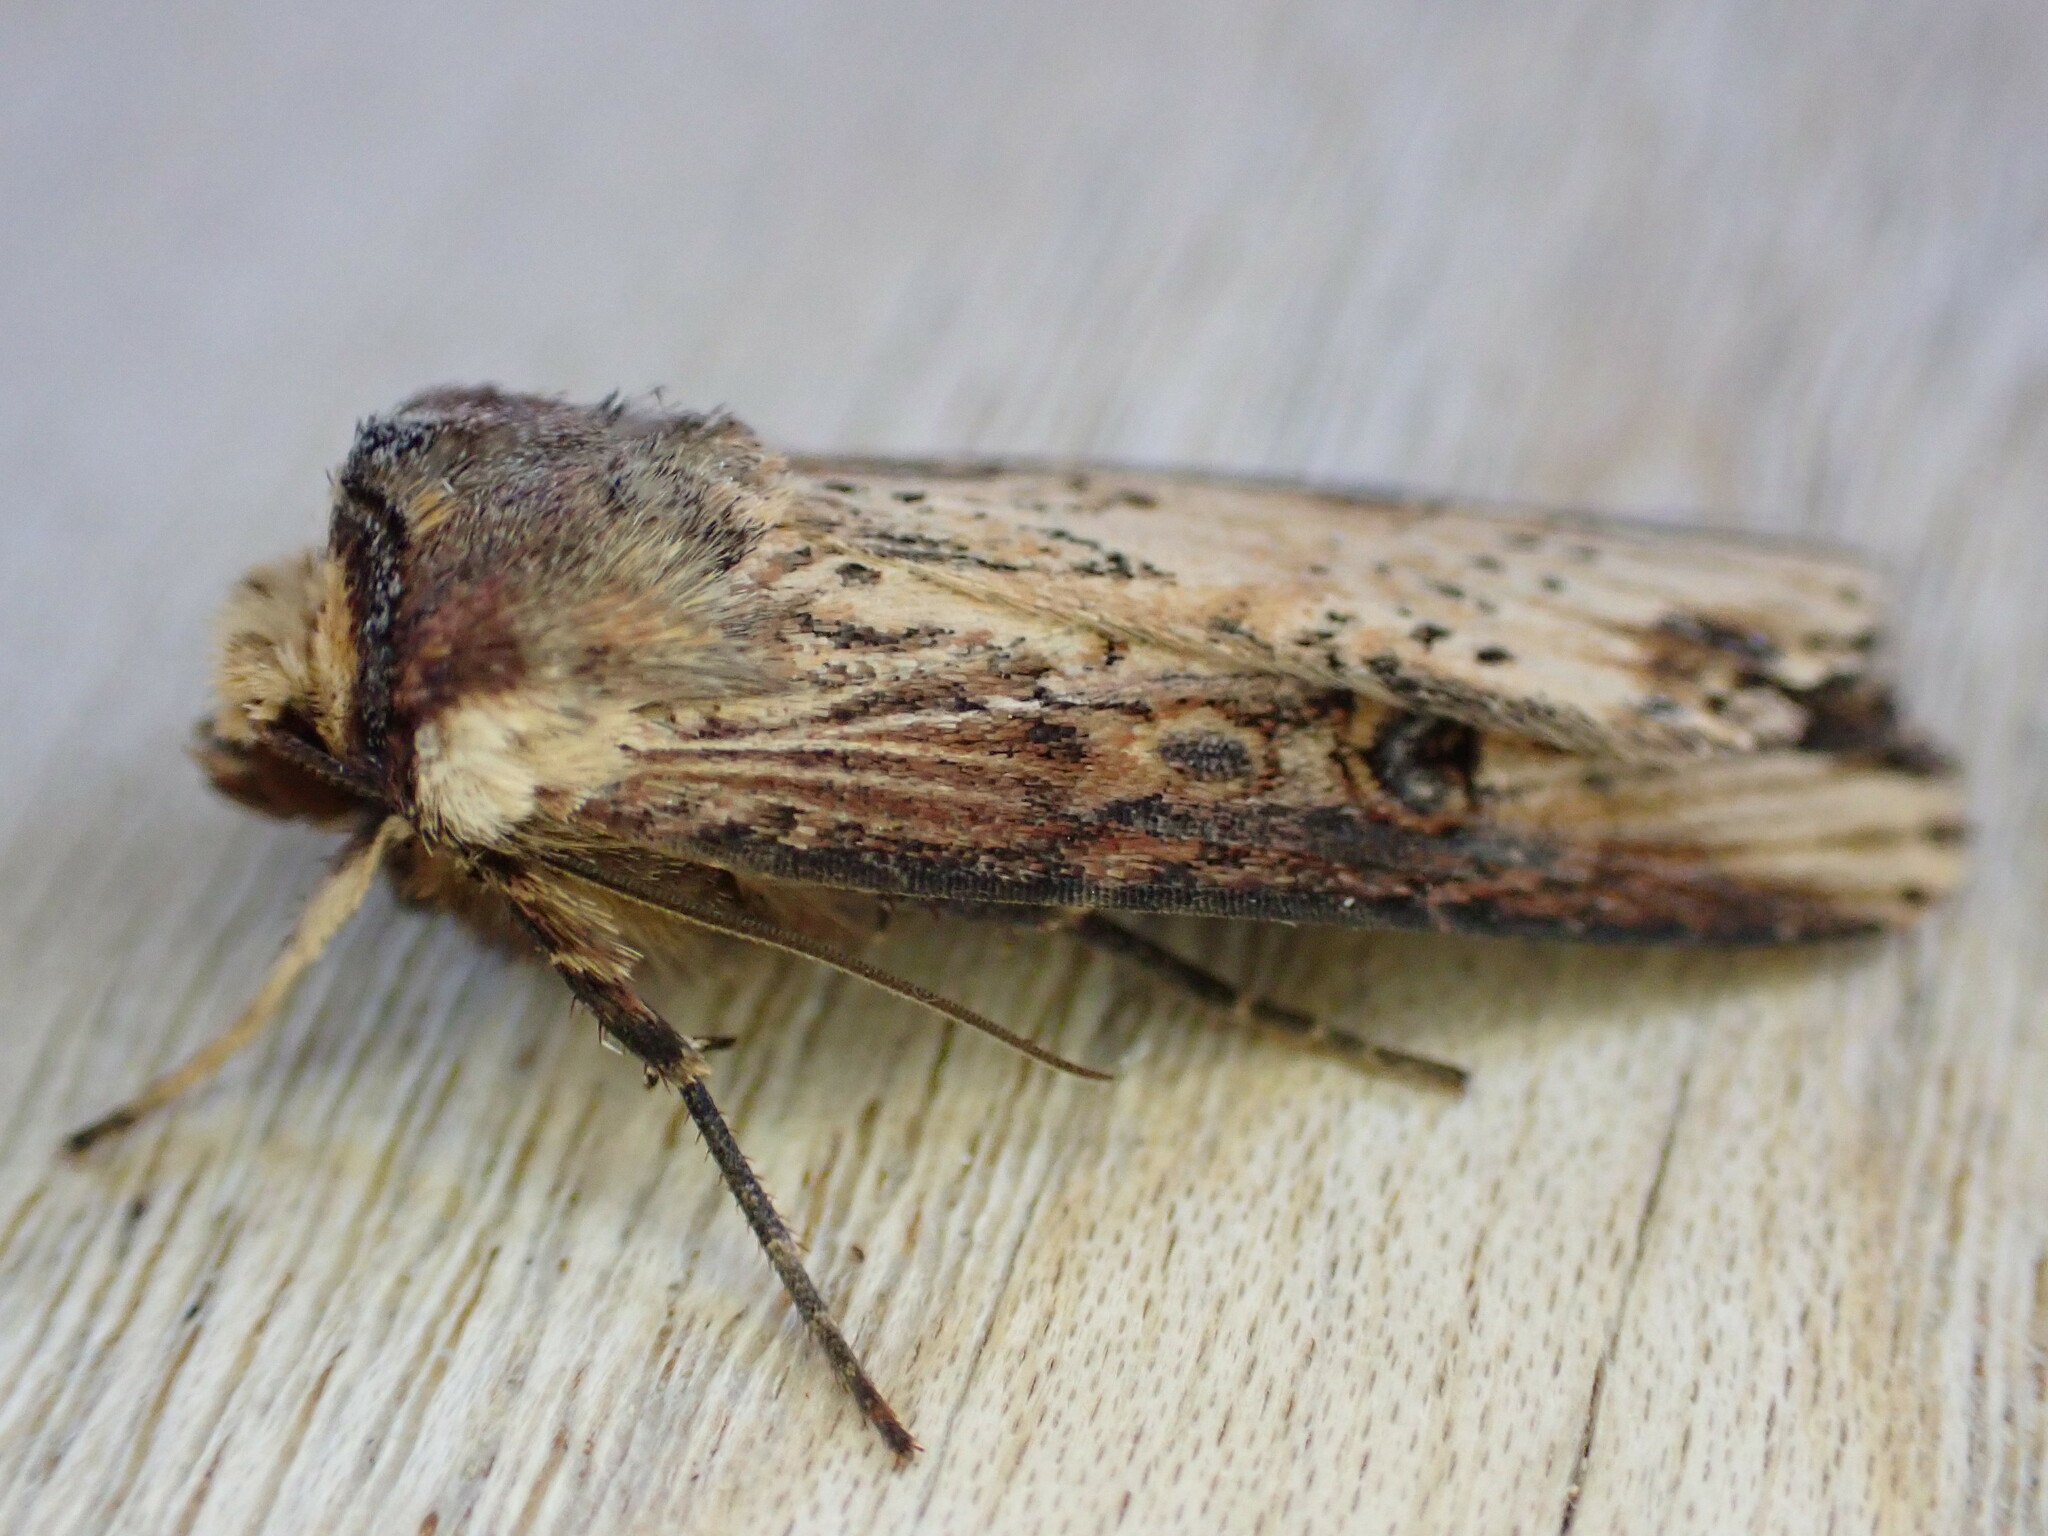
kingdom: Animalia
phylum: Arthropoda
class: Insecta
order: Lepidoptera
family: Noctuidae
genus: Axylia
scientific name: Axylia putris
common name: Flame
